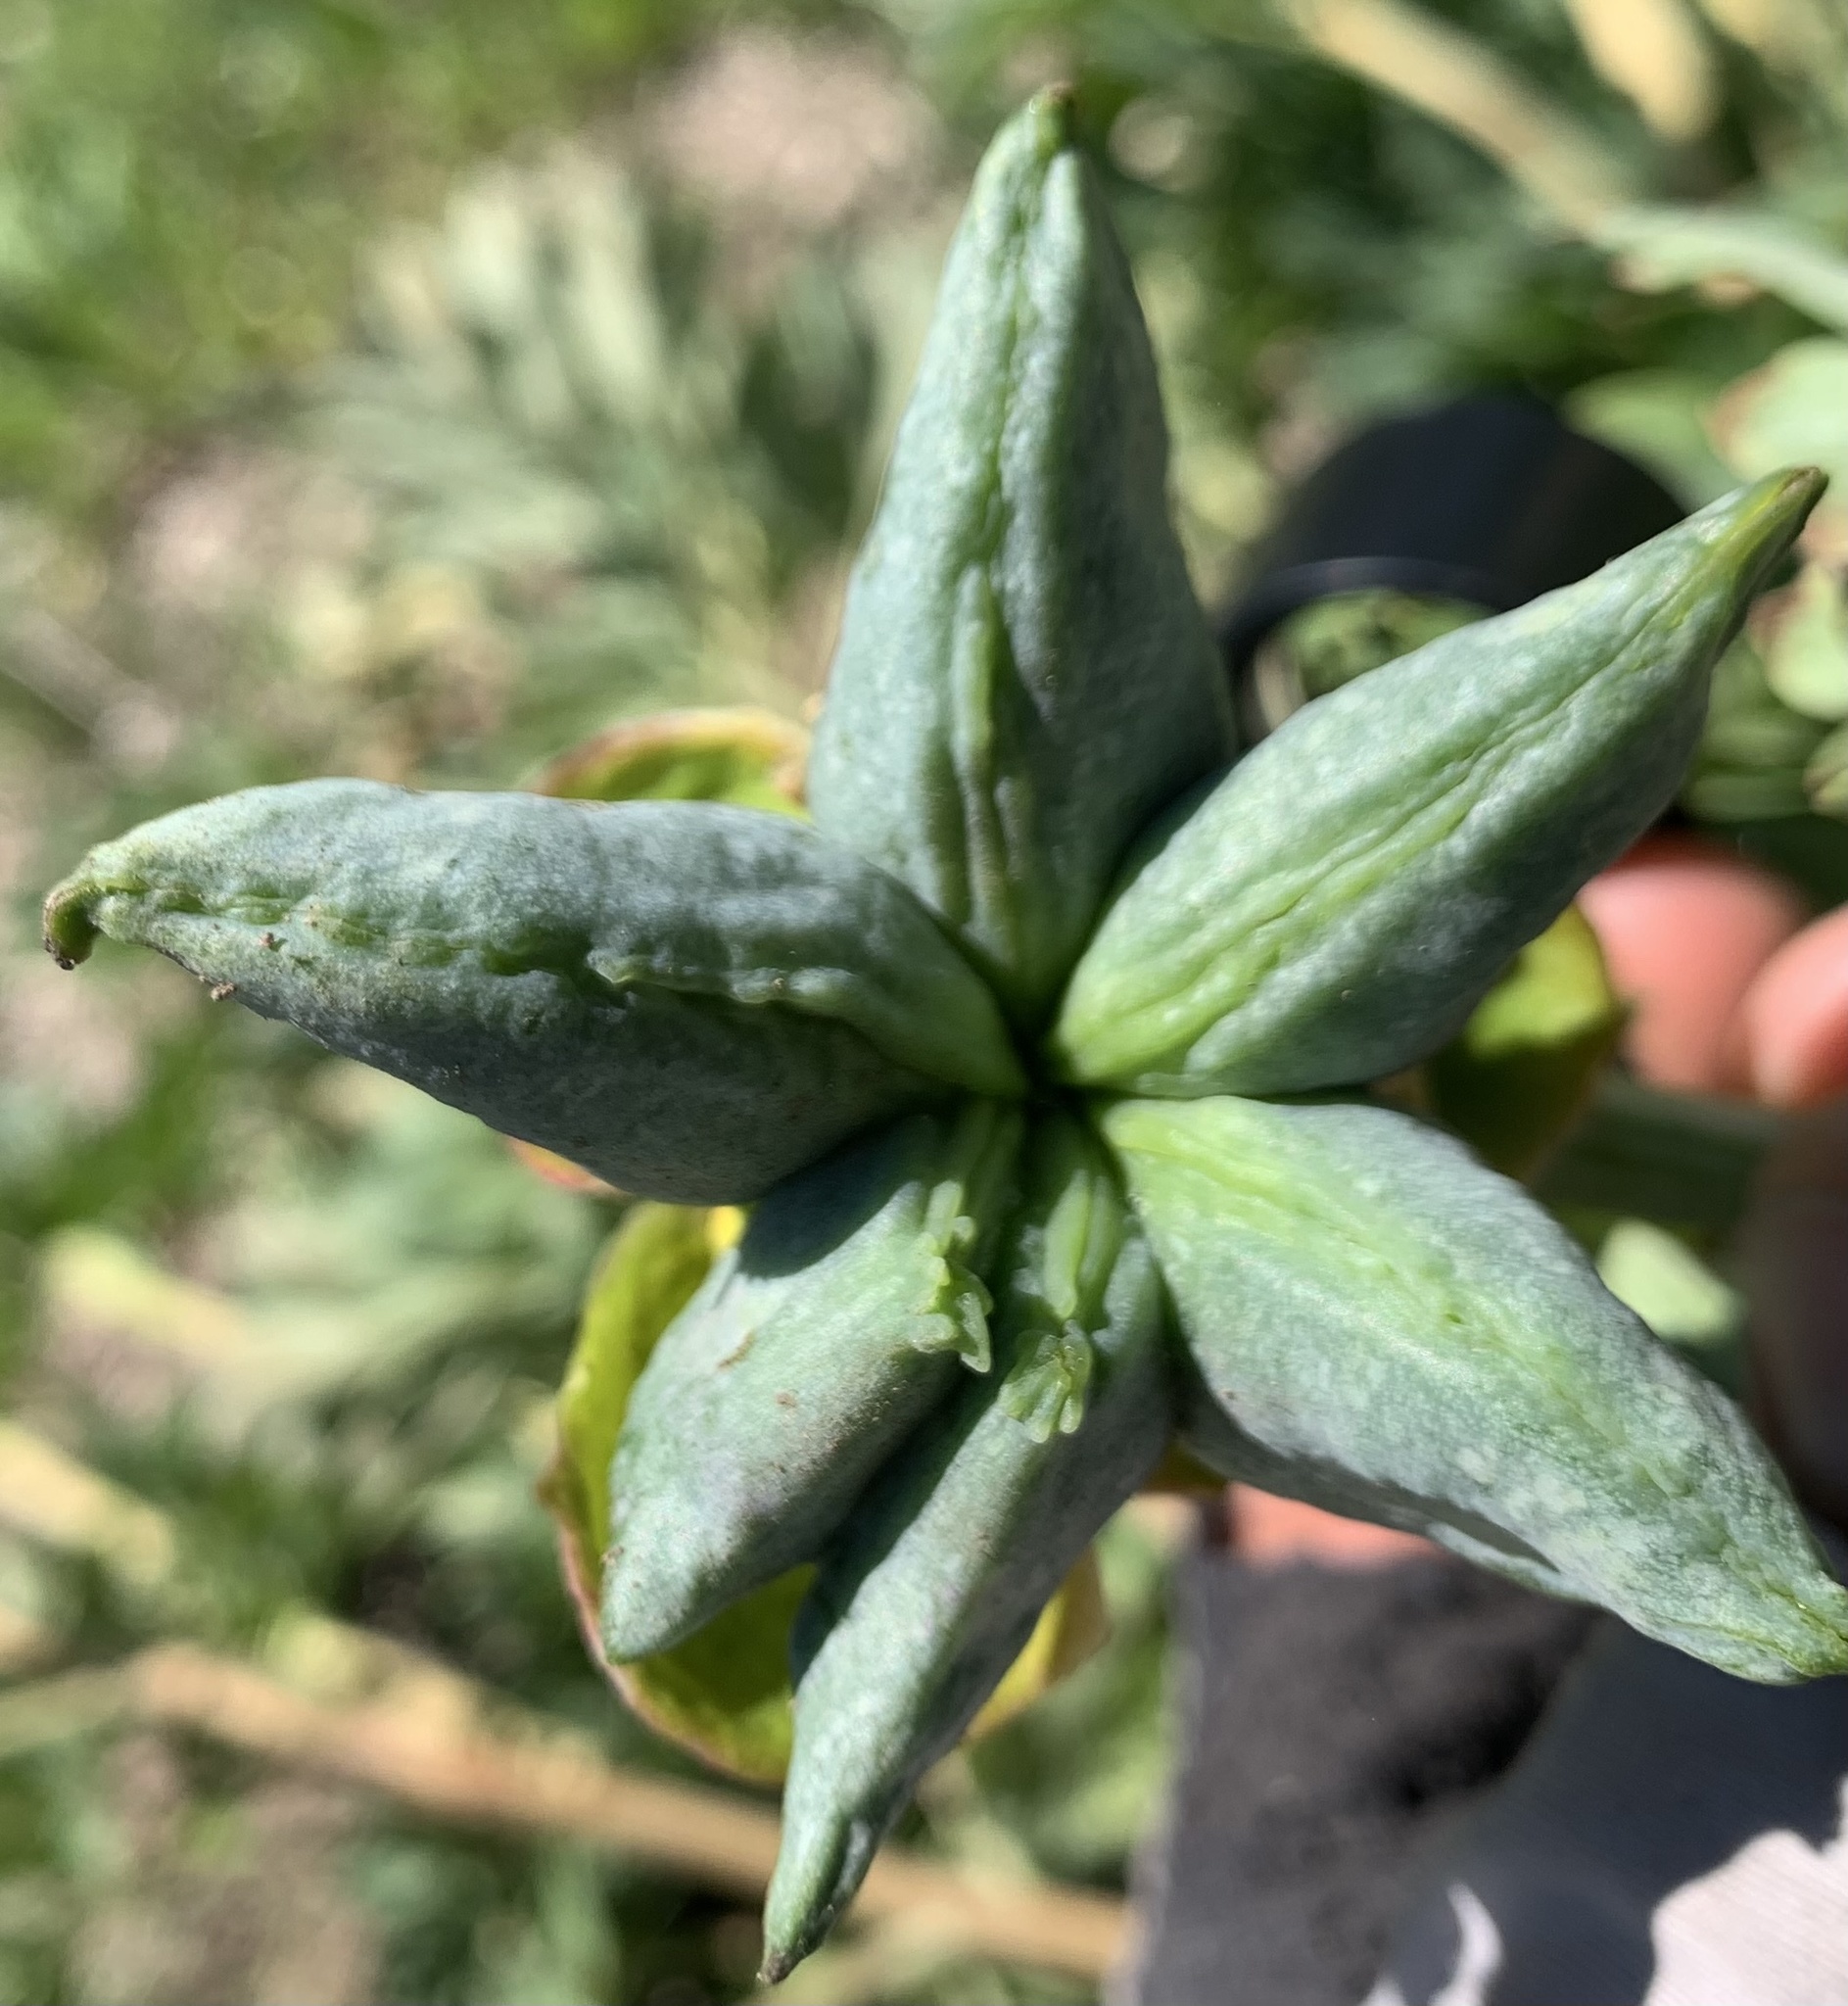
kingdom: Plantae
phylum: Tracheophyta
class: Magnoliopsida
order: Saxifragales
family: Paeoniaceae
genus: Paeonia
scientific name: Paeonia brownii
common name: Brown's peony
